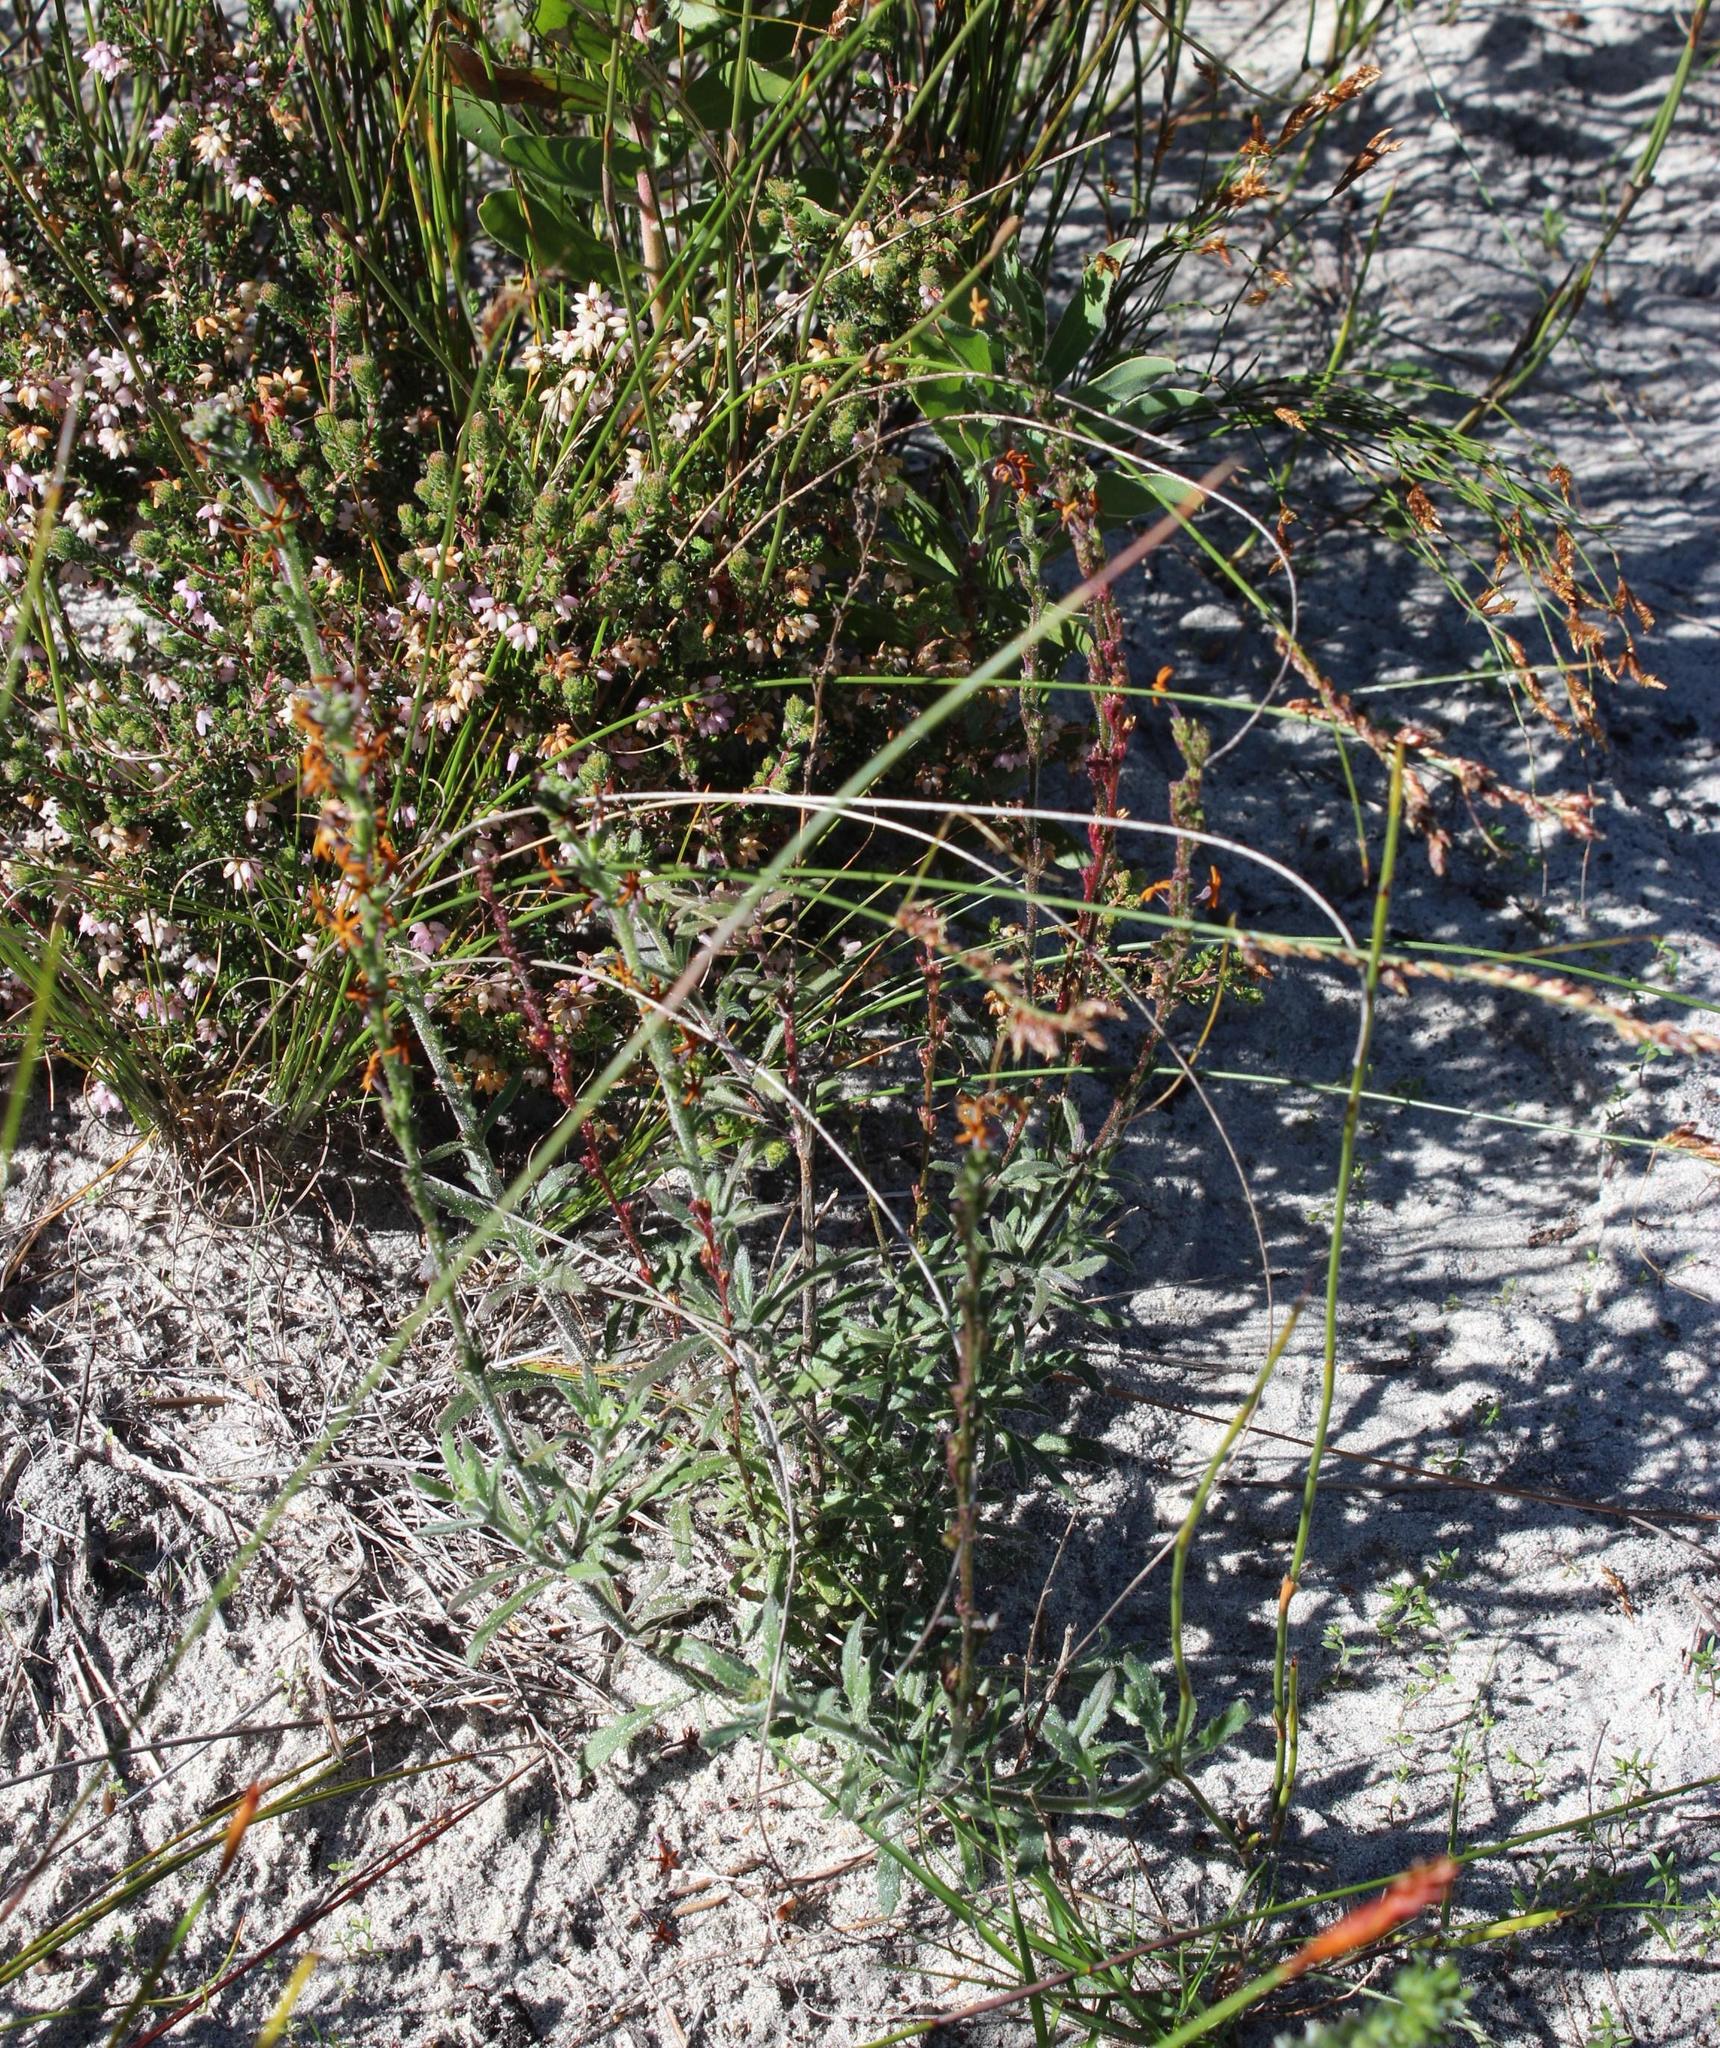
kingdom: Plantae
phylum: Tracheophyta
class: Magnoliopsida
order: Lamiales
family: Scrophulariaceae
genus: Manulea
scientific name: Manulea tomentosa
